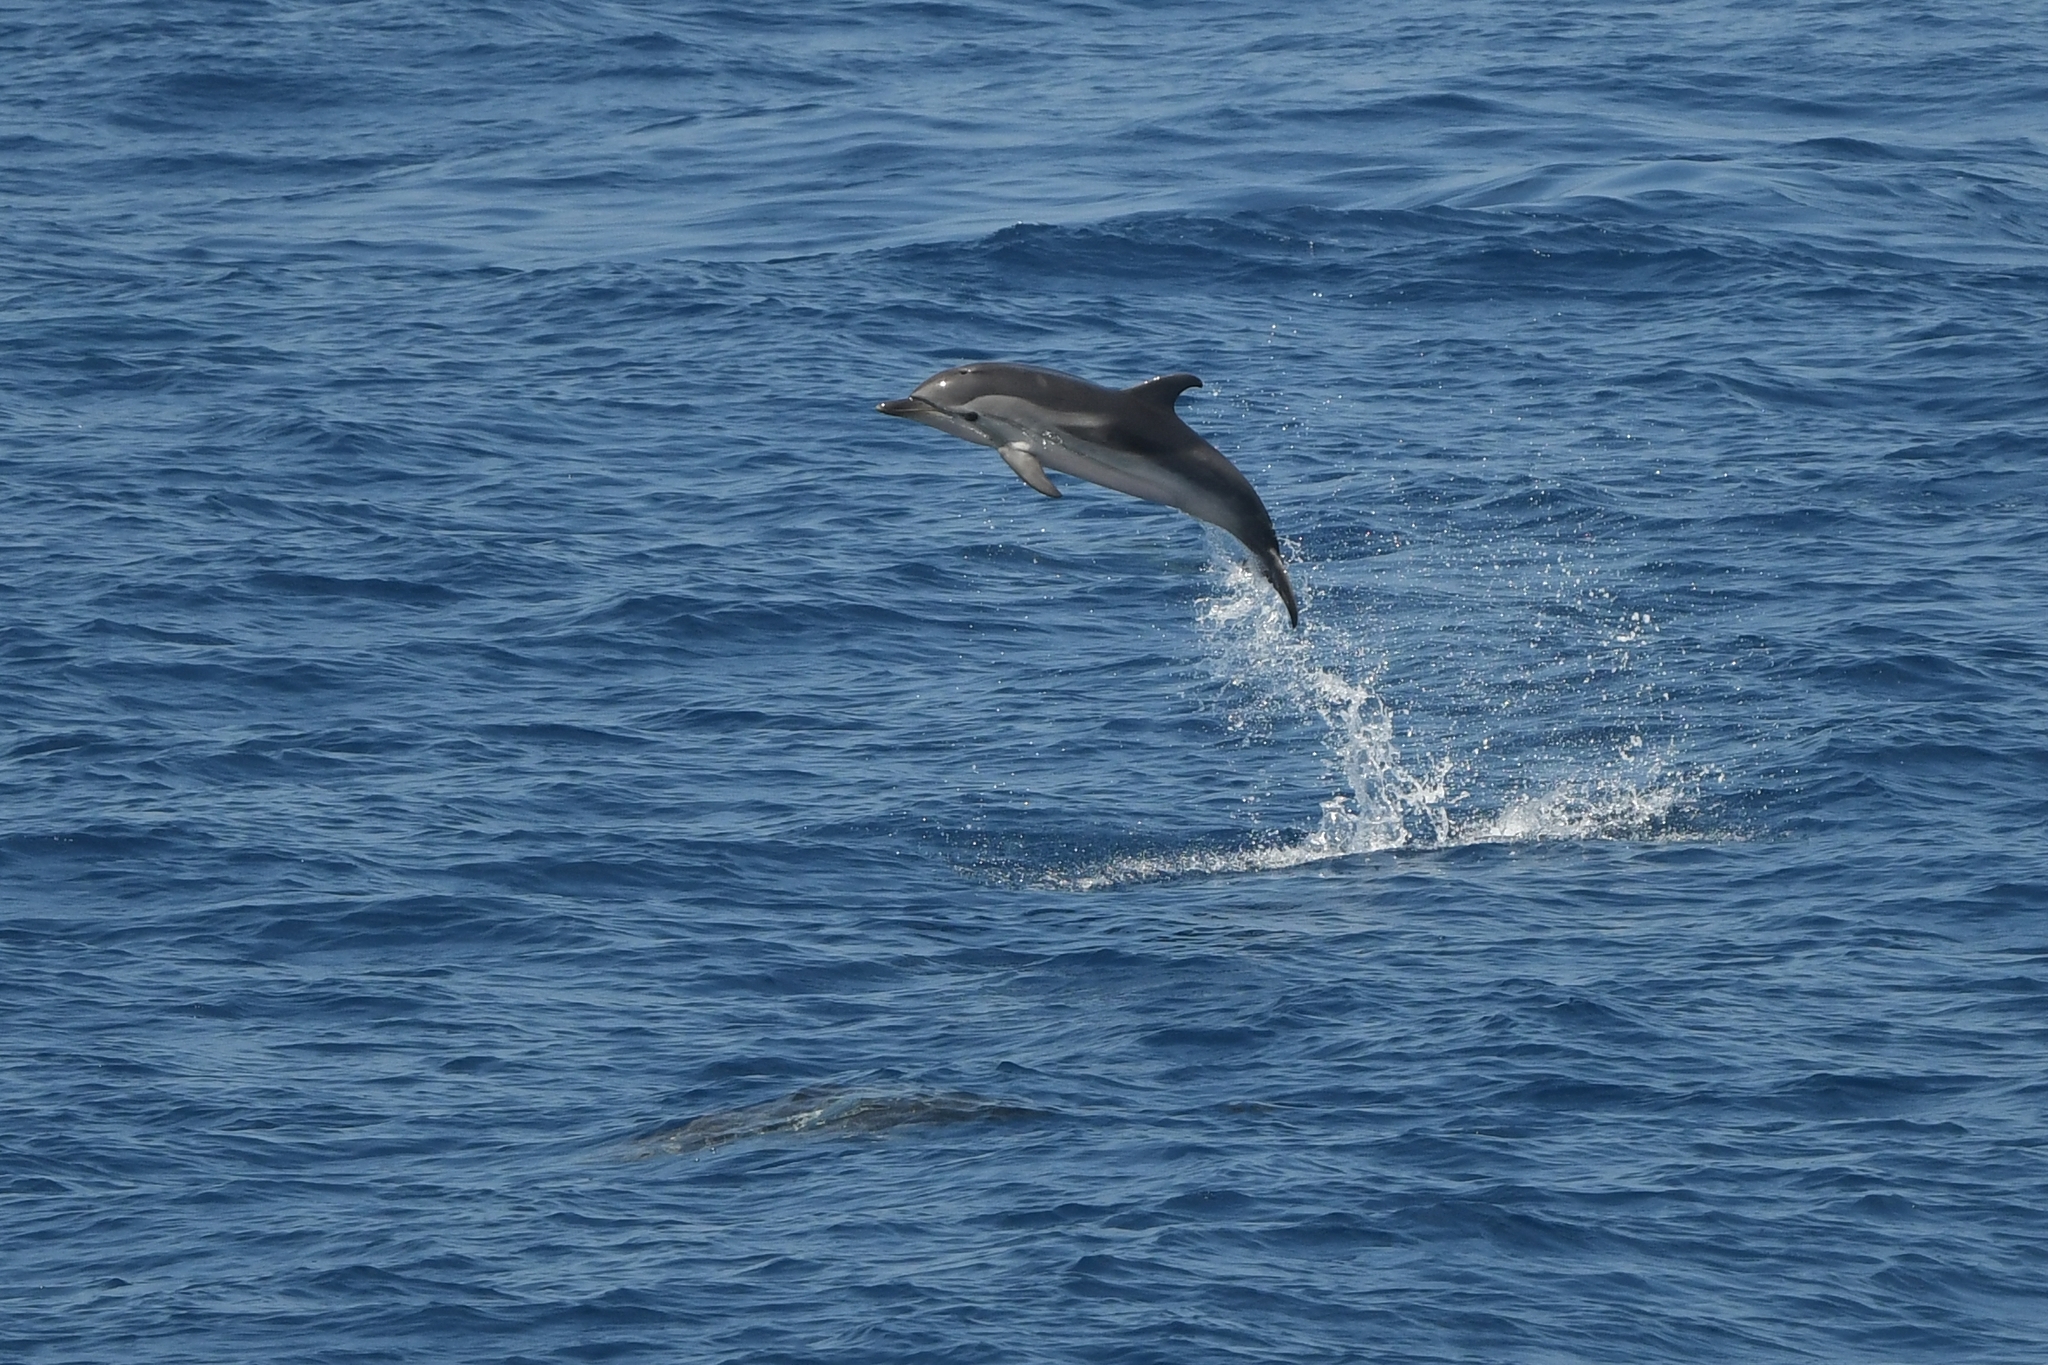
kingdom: Animalia
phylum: Chordata
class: Mammalia
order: Cetacea
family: Delphinidae
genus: Stenella
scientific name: Stenella coeruleoalba
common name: Striped dolphin
